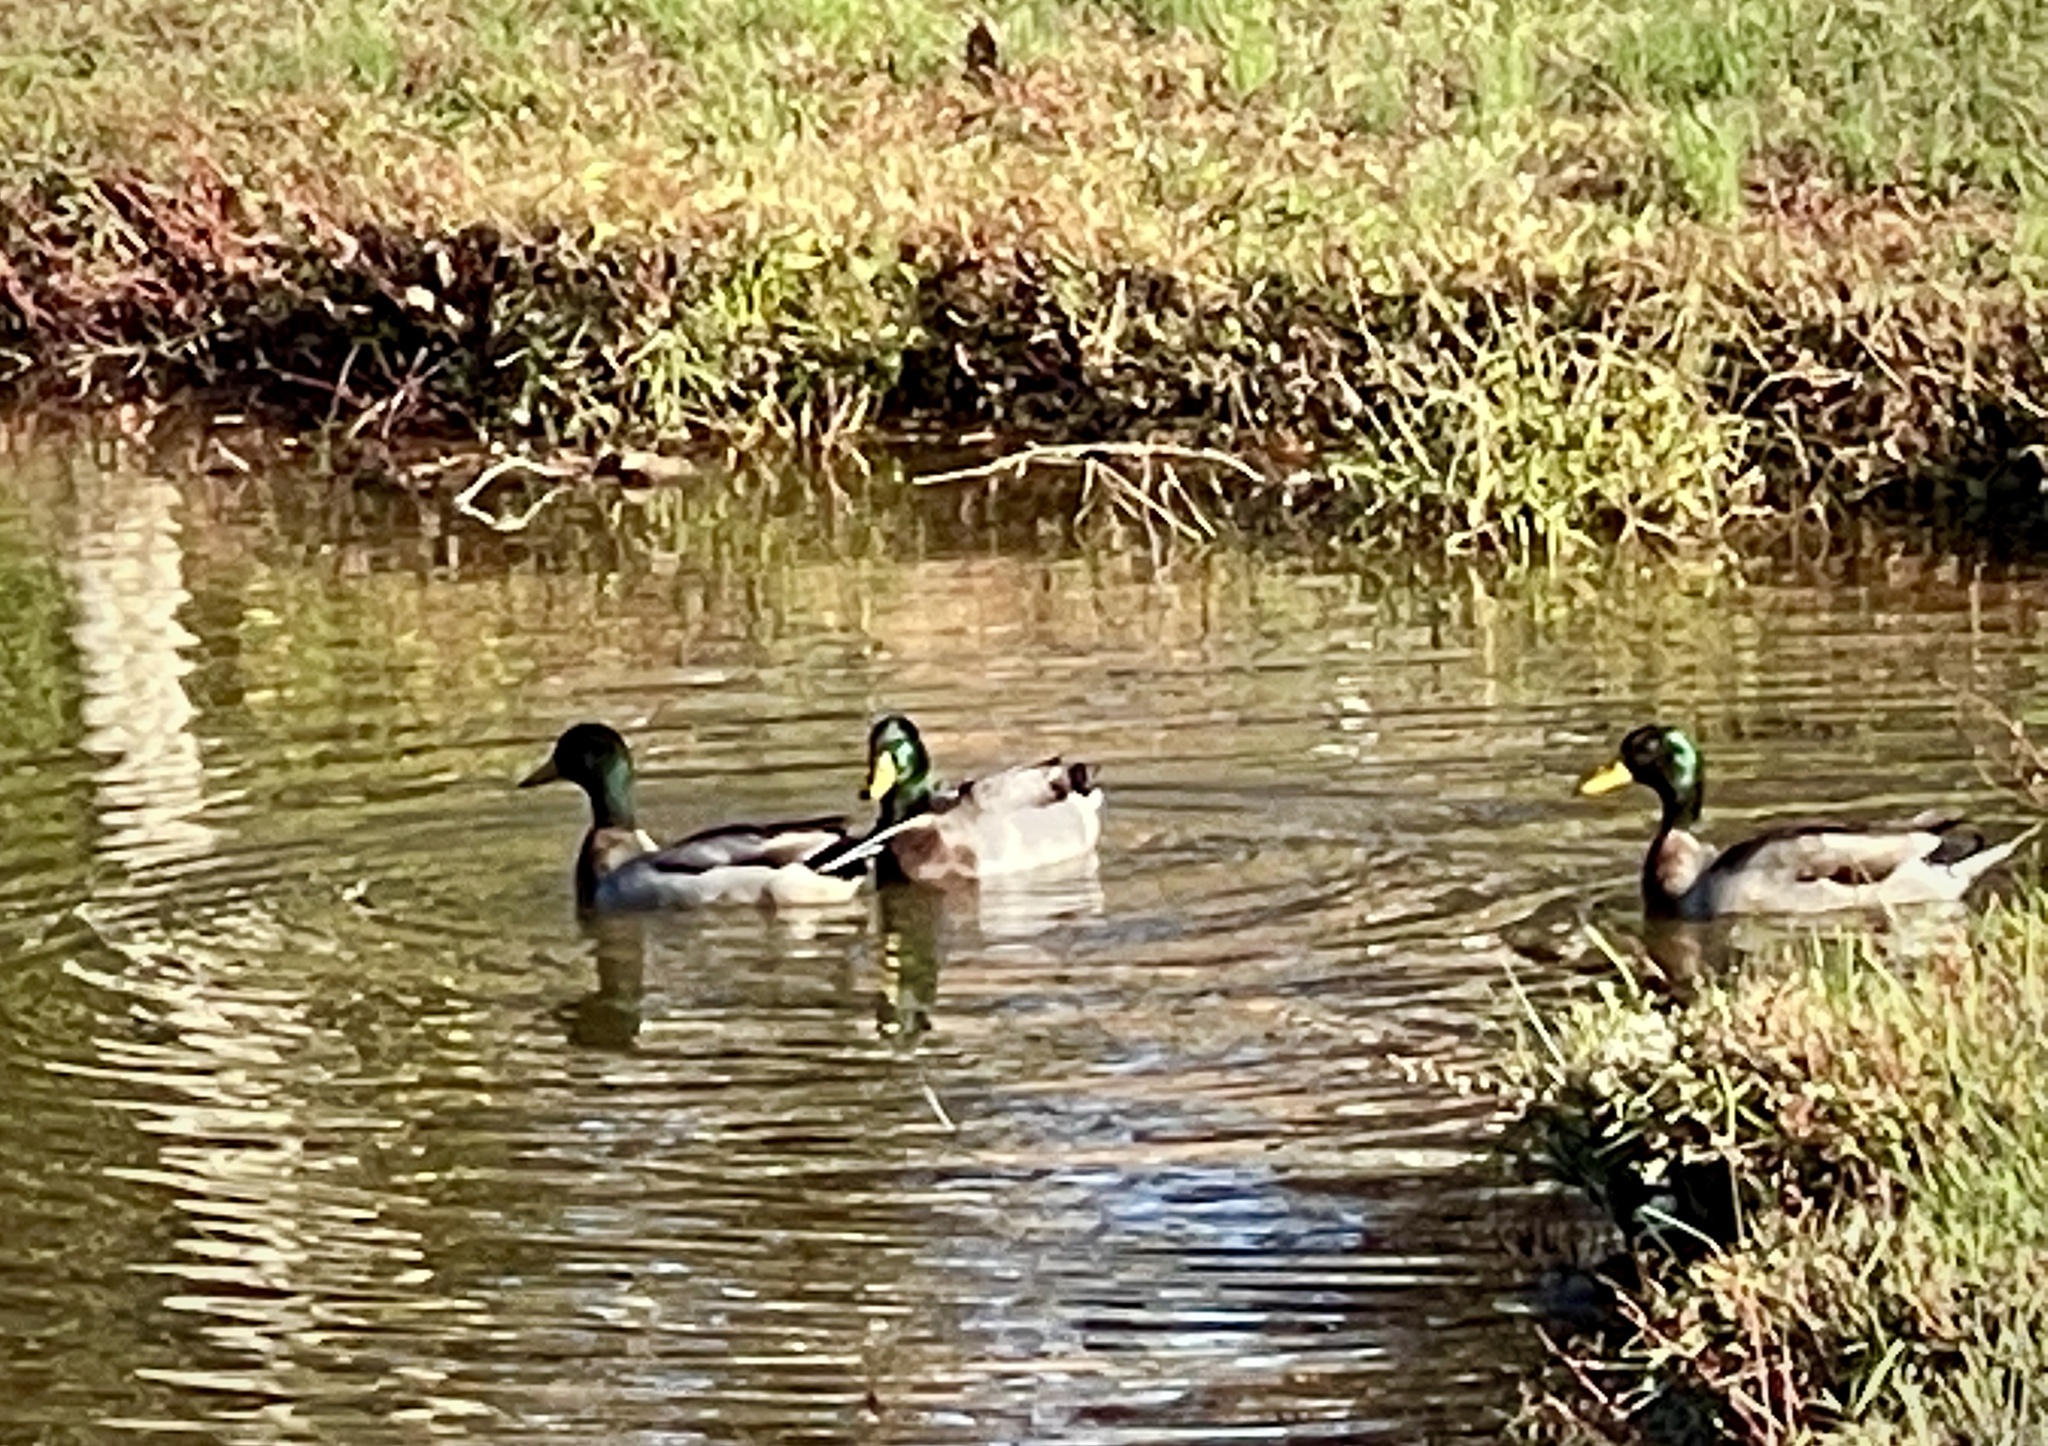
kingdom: Animalia
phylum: Chordata
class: Aves
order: Anseriformes
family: Anatidae
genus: Anas
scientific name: Anas platyrhynchos
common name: Mallard
